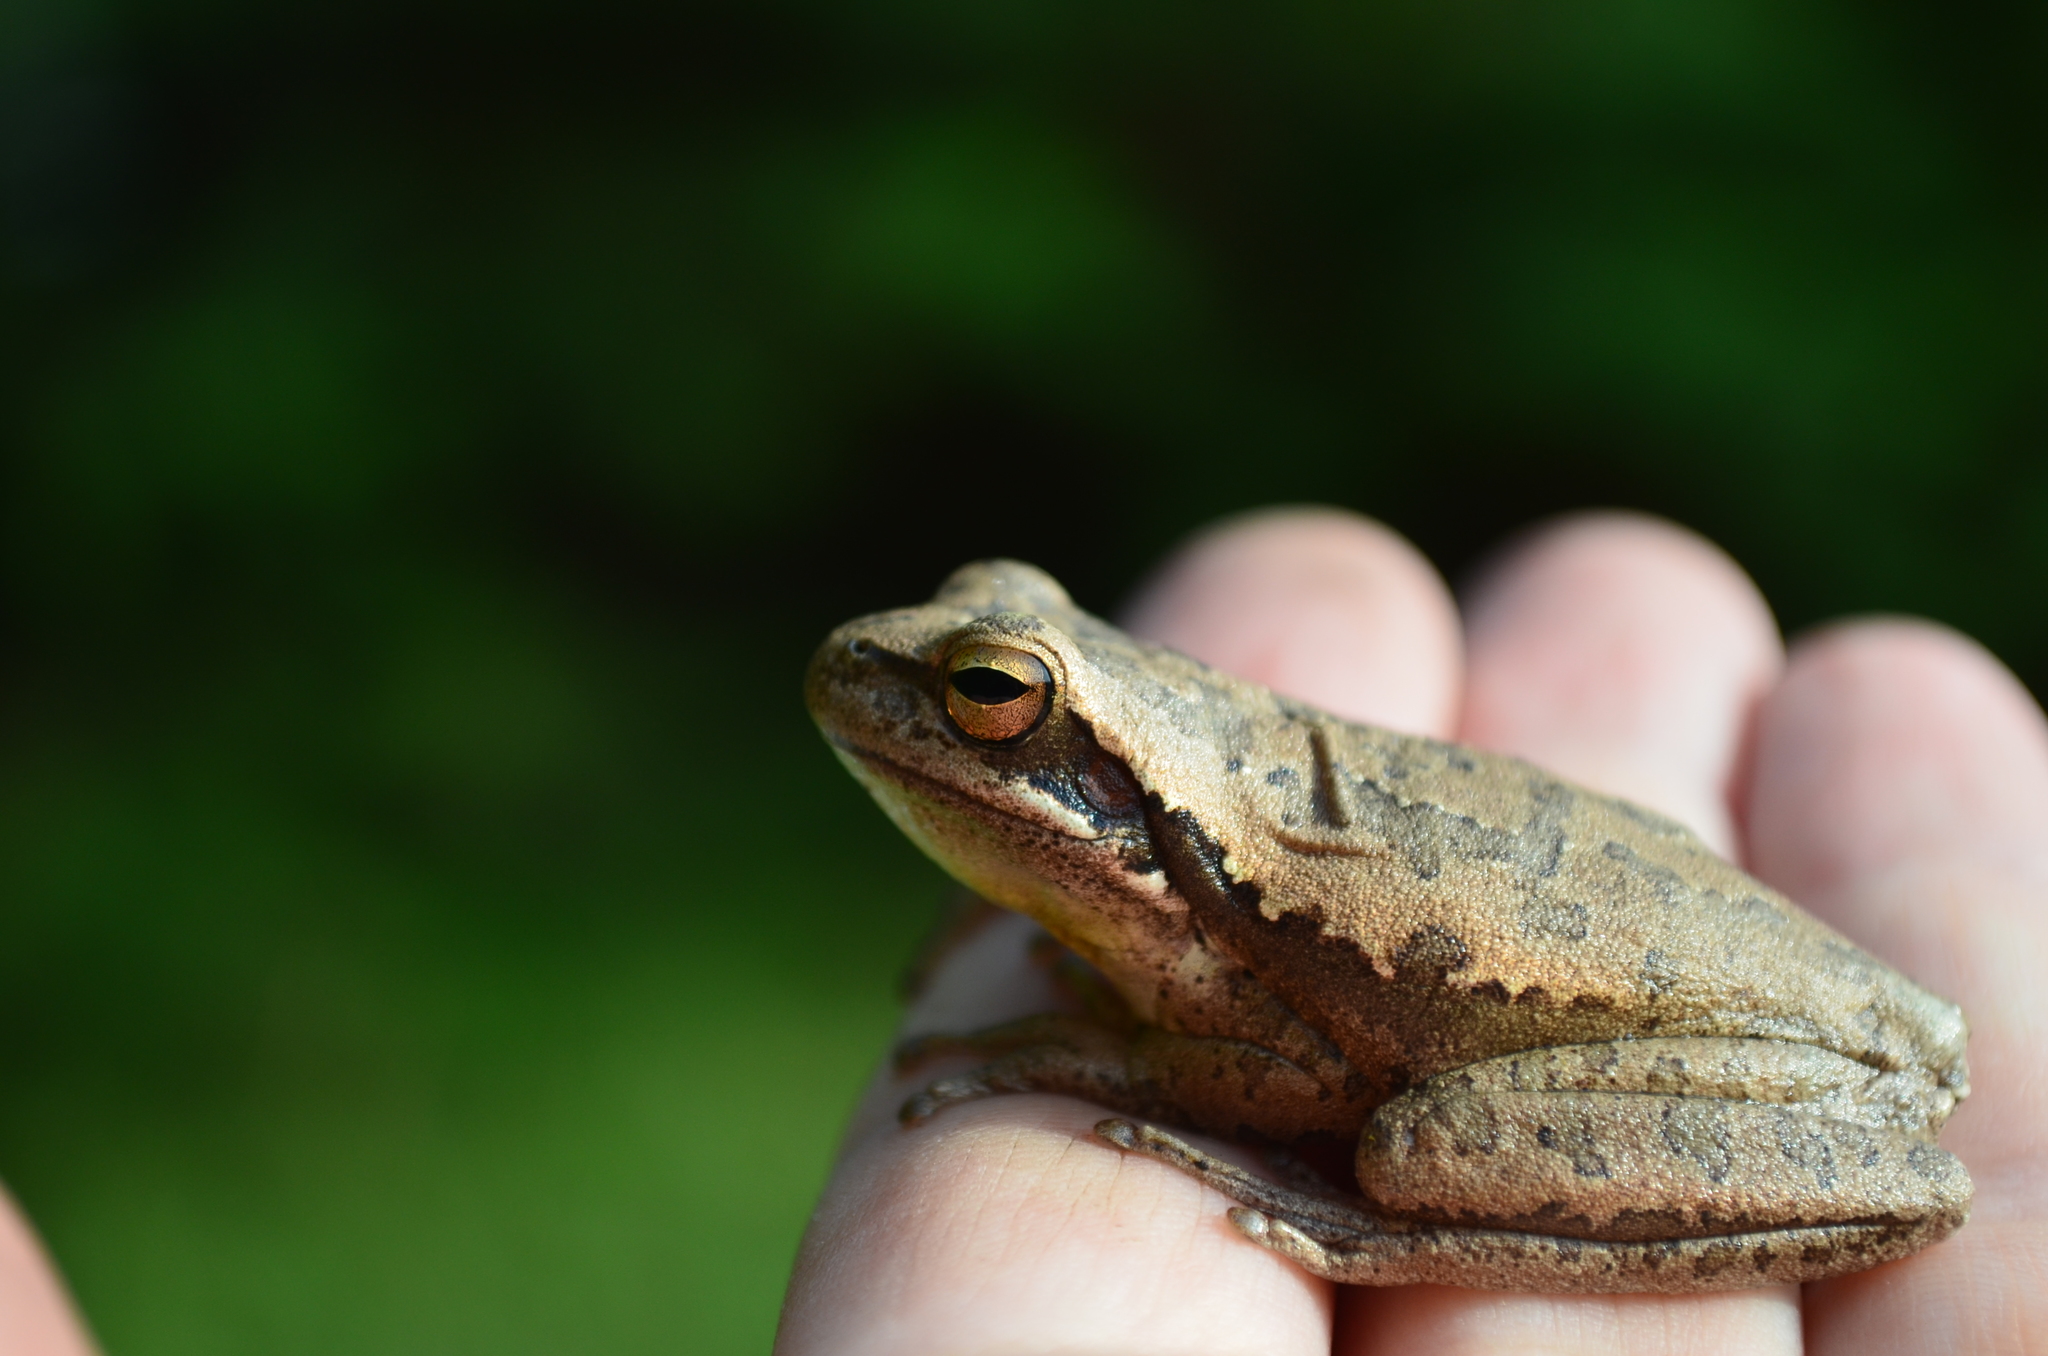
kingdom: Animalia
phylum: Chordata
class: Amphibia
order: Anura
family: Hylidae
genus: Boana
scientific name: Boana pulchella
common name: Montevideo treefrog
